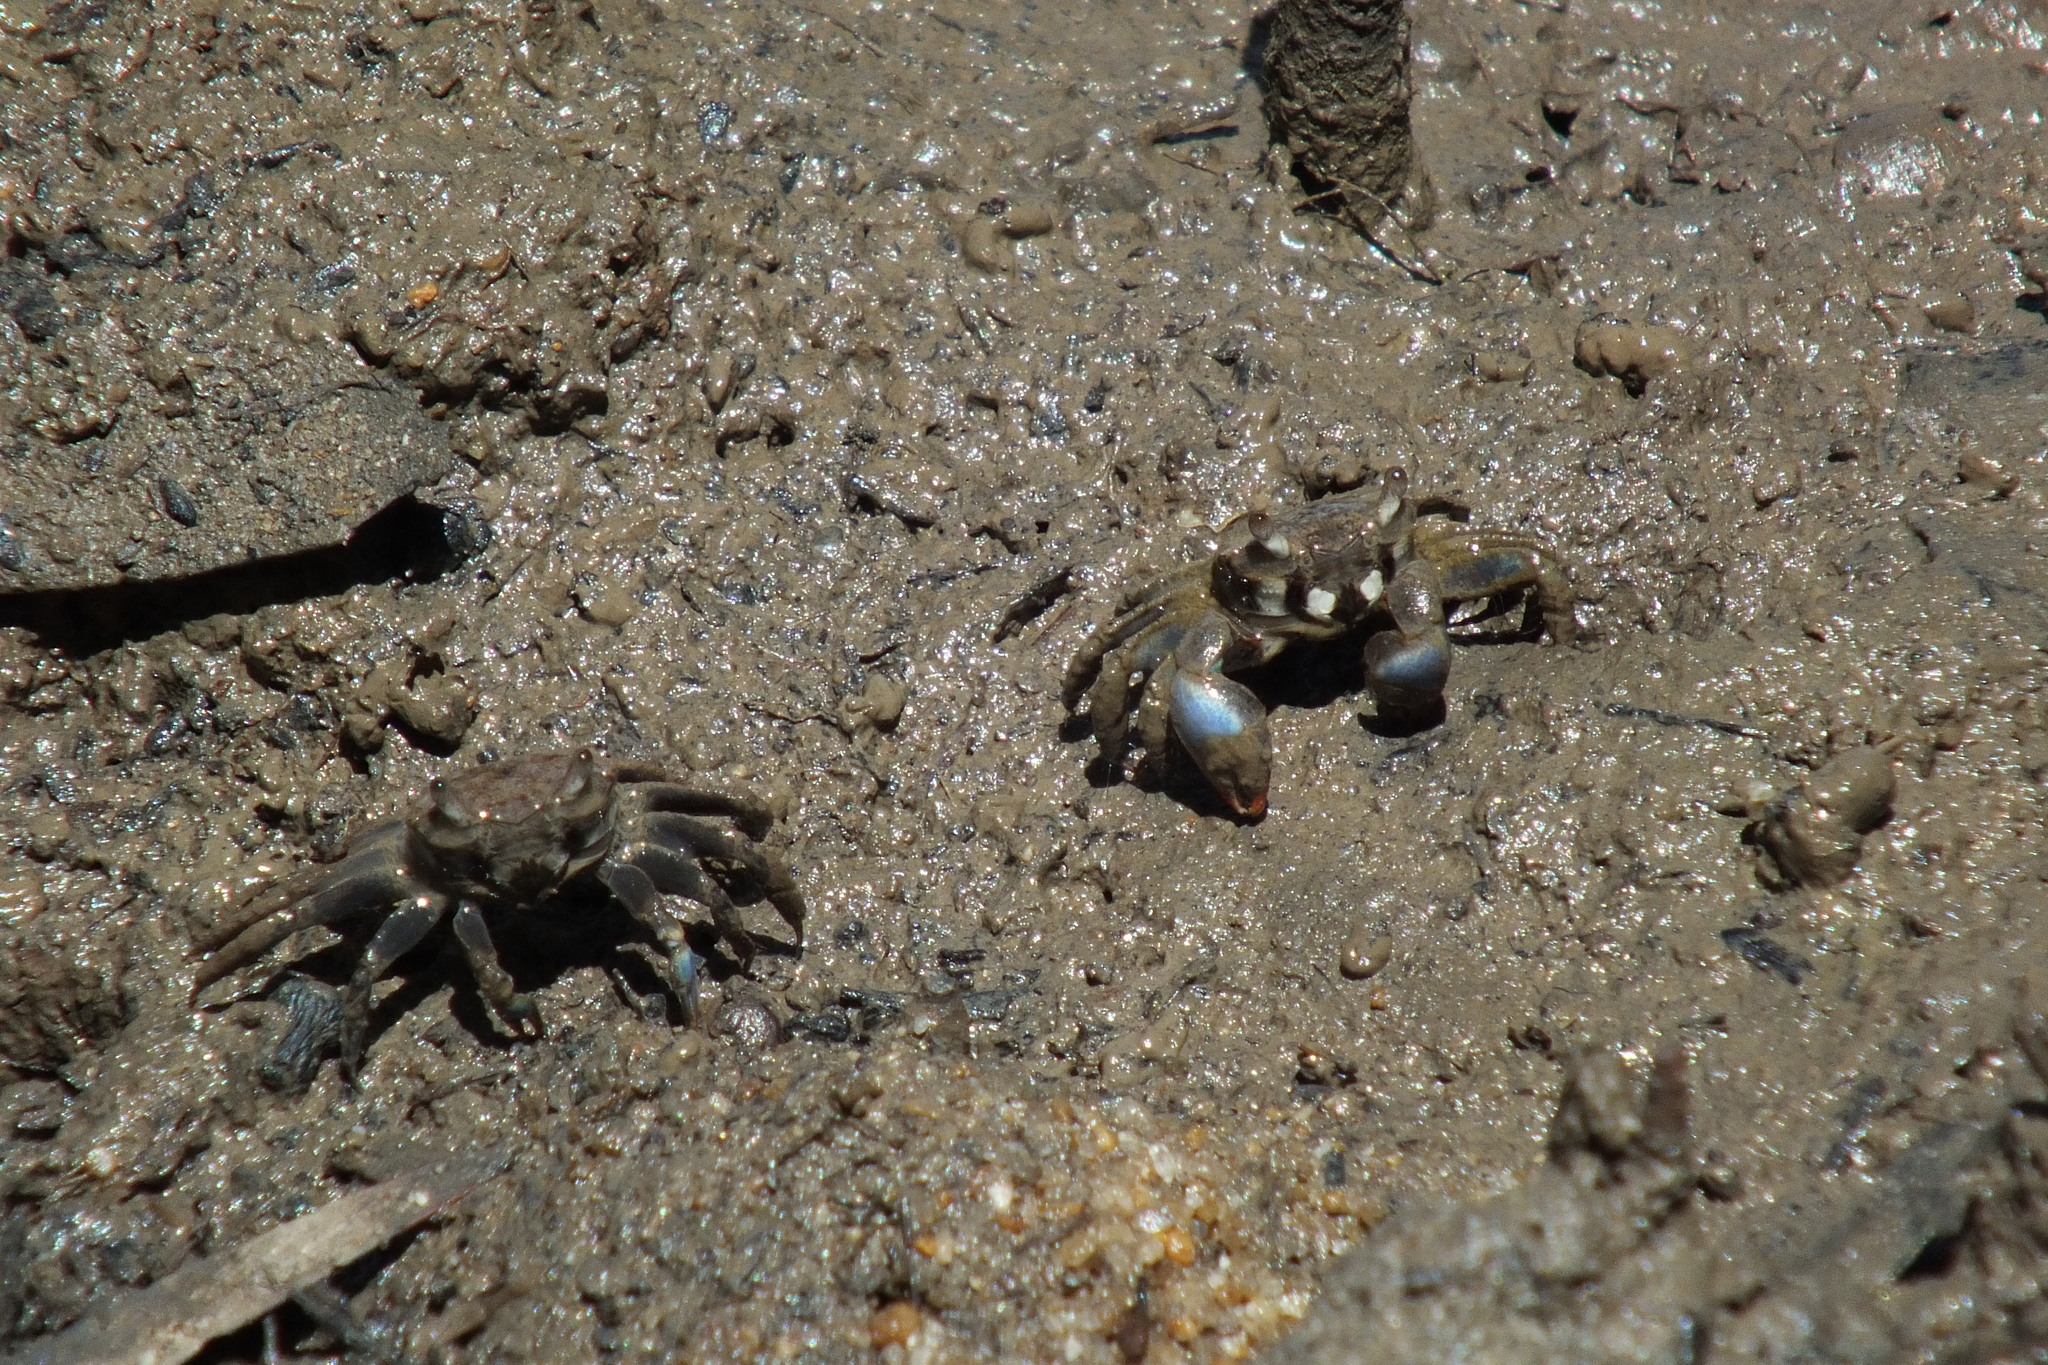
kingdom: Animalia
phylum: Arthropoda
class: Malacostraca
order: Decapoda
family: Macrophthalmidae
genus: Australoplax
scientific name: Australoplax tridentata
